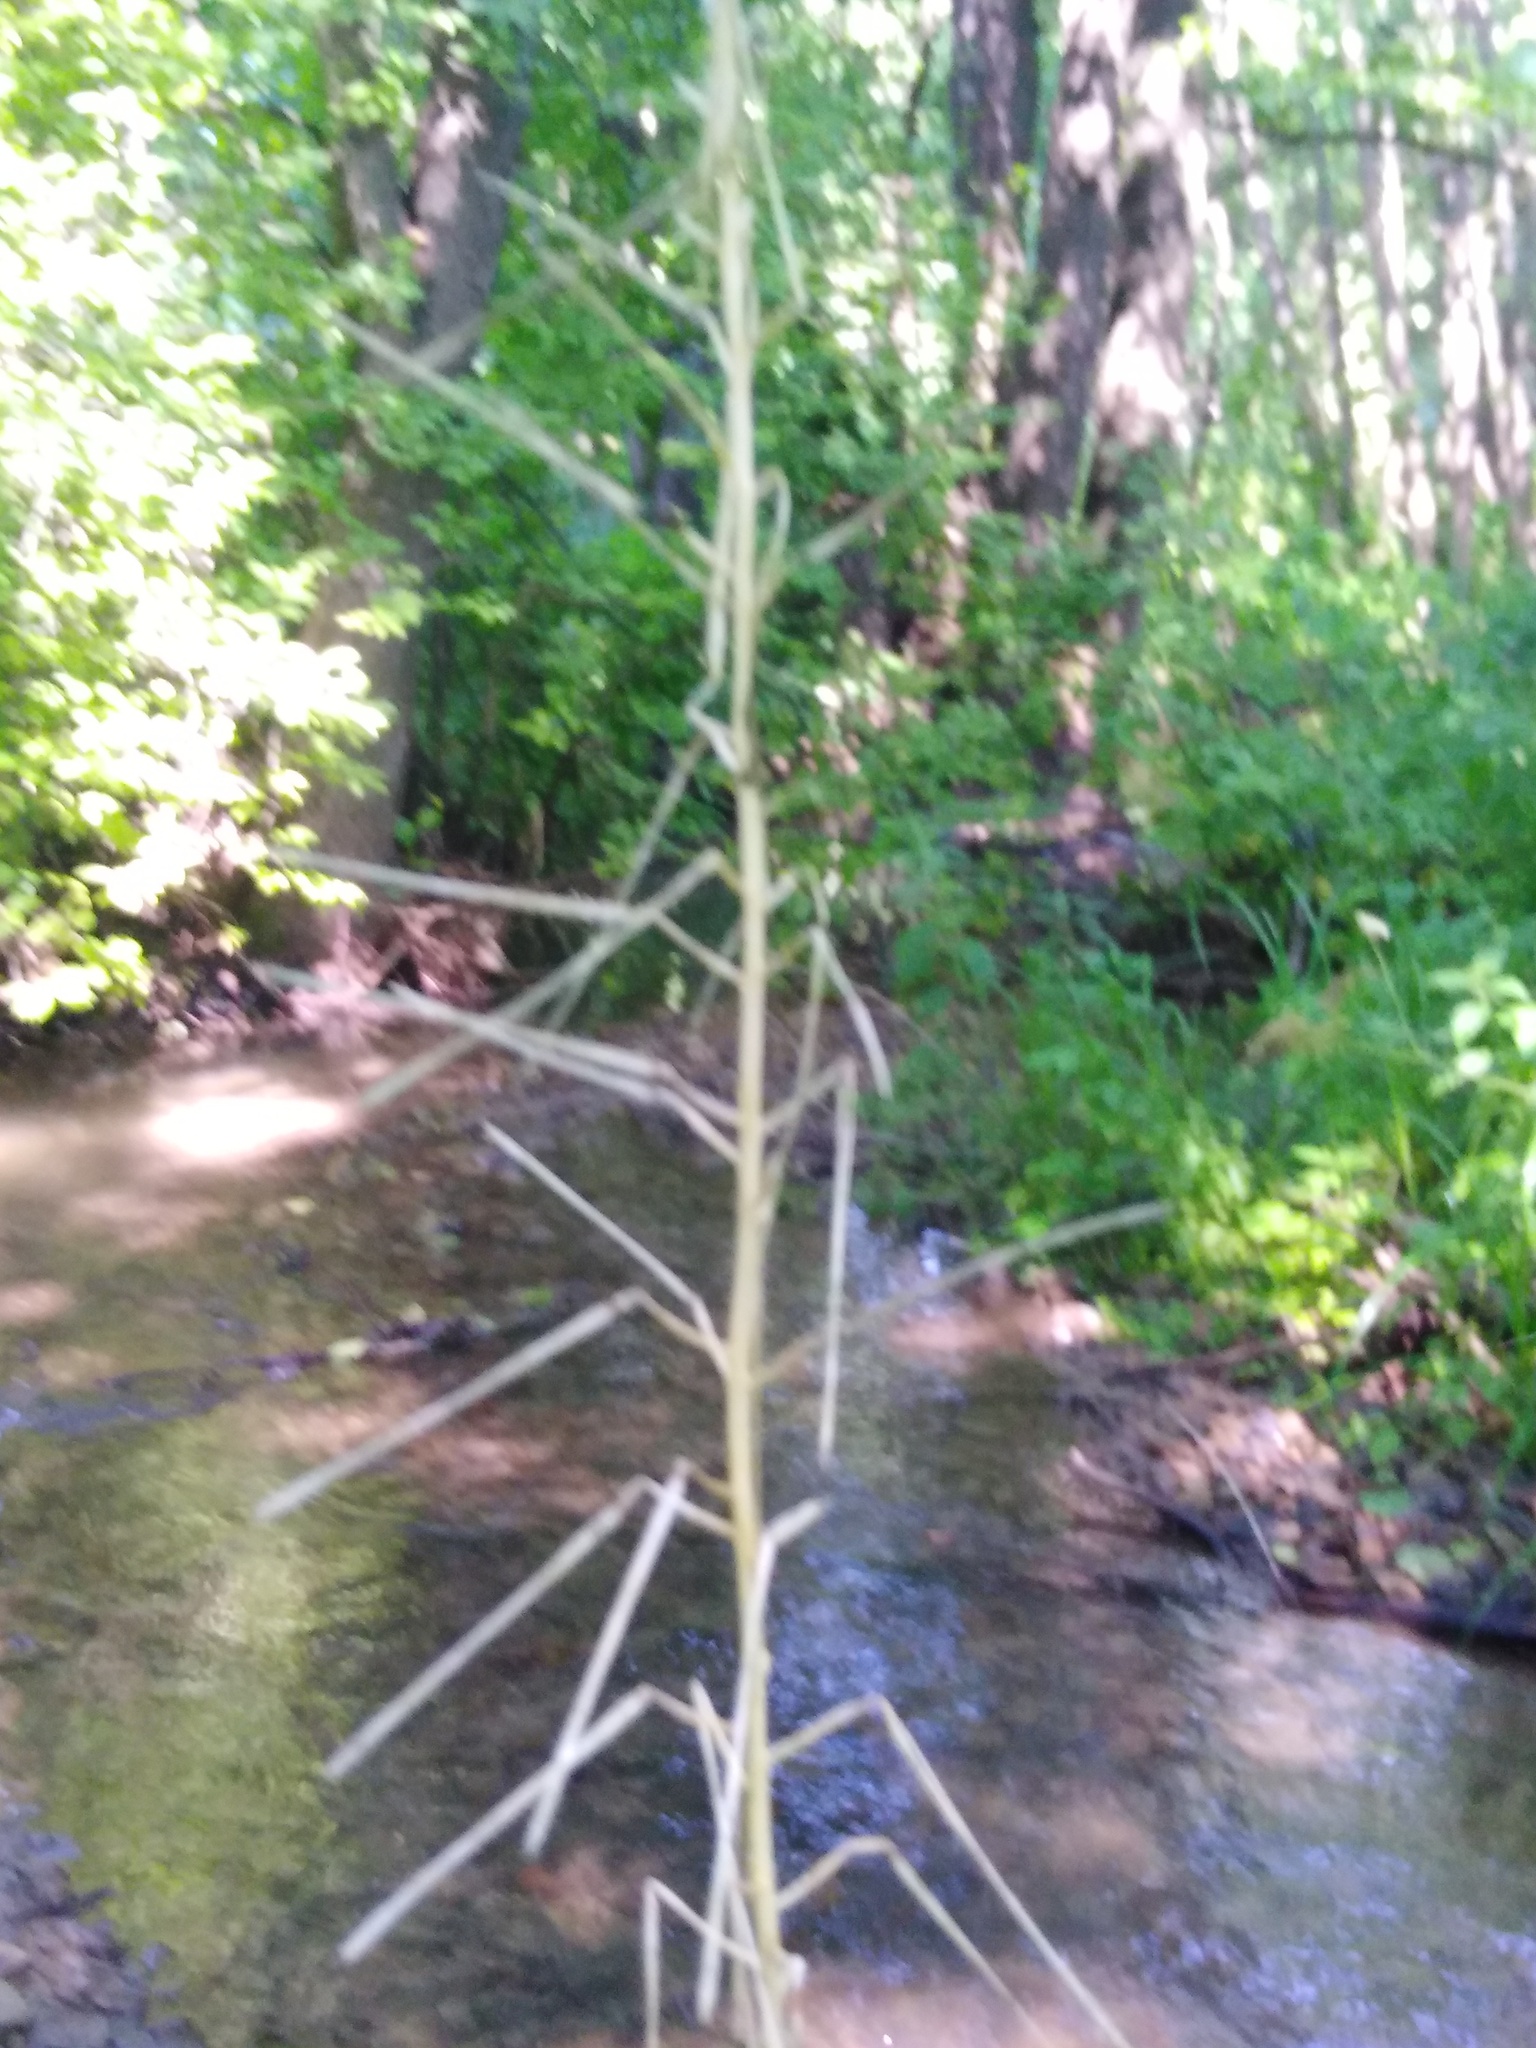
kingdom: Plantae
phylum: Tracheophyta
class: Magnoliopsida
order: Brassicales
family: Brassicaceae
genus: Cardamine
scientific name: Cardamine impatiens
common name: Narrow-leaved bitter-cress
